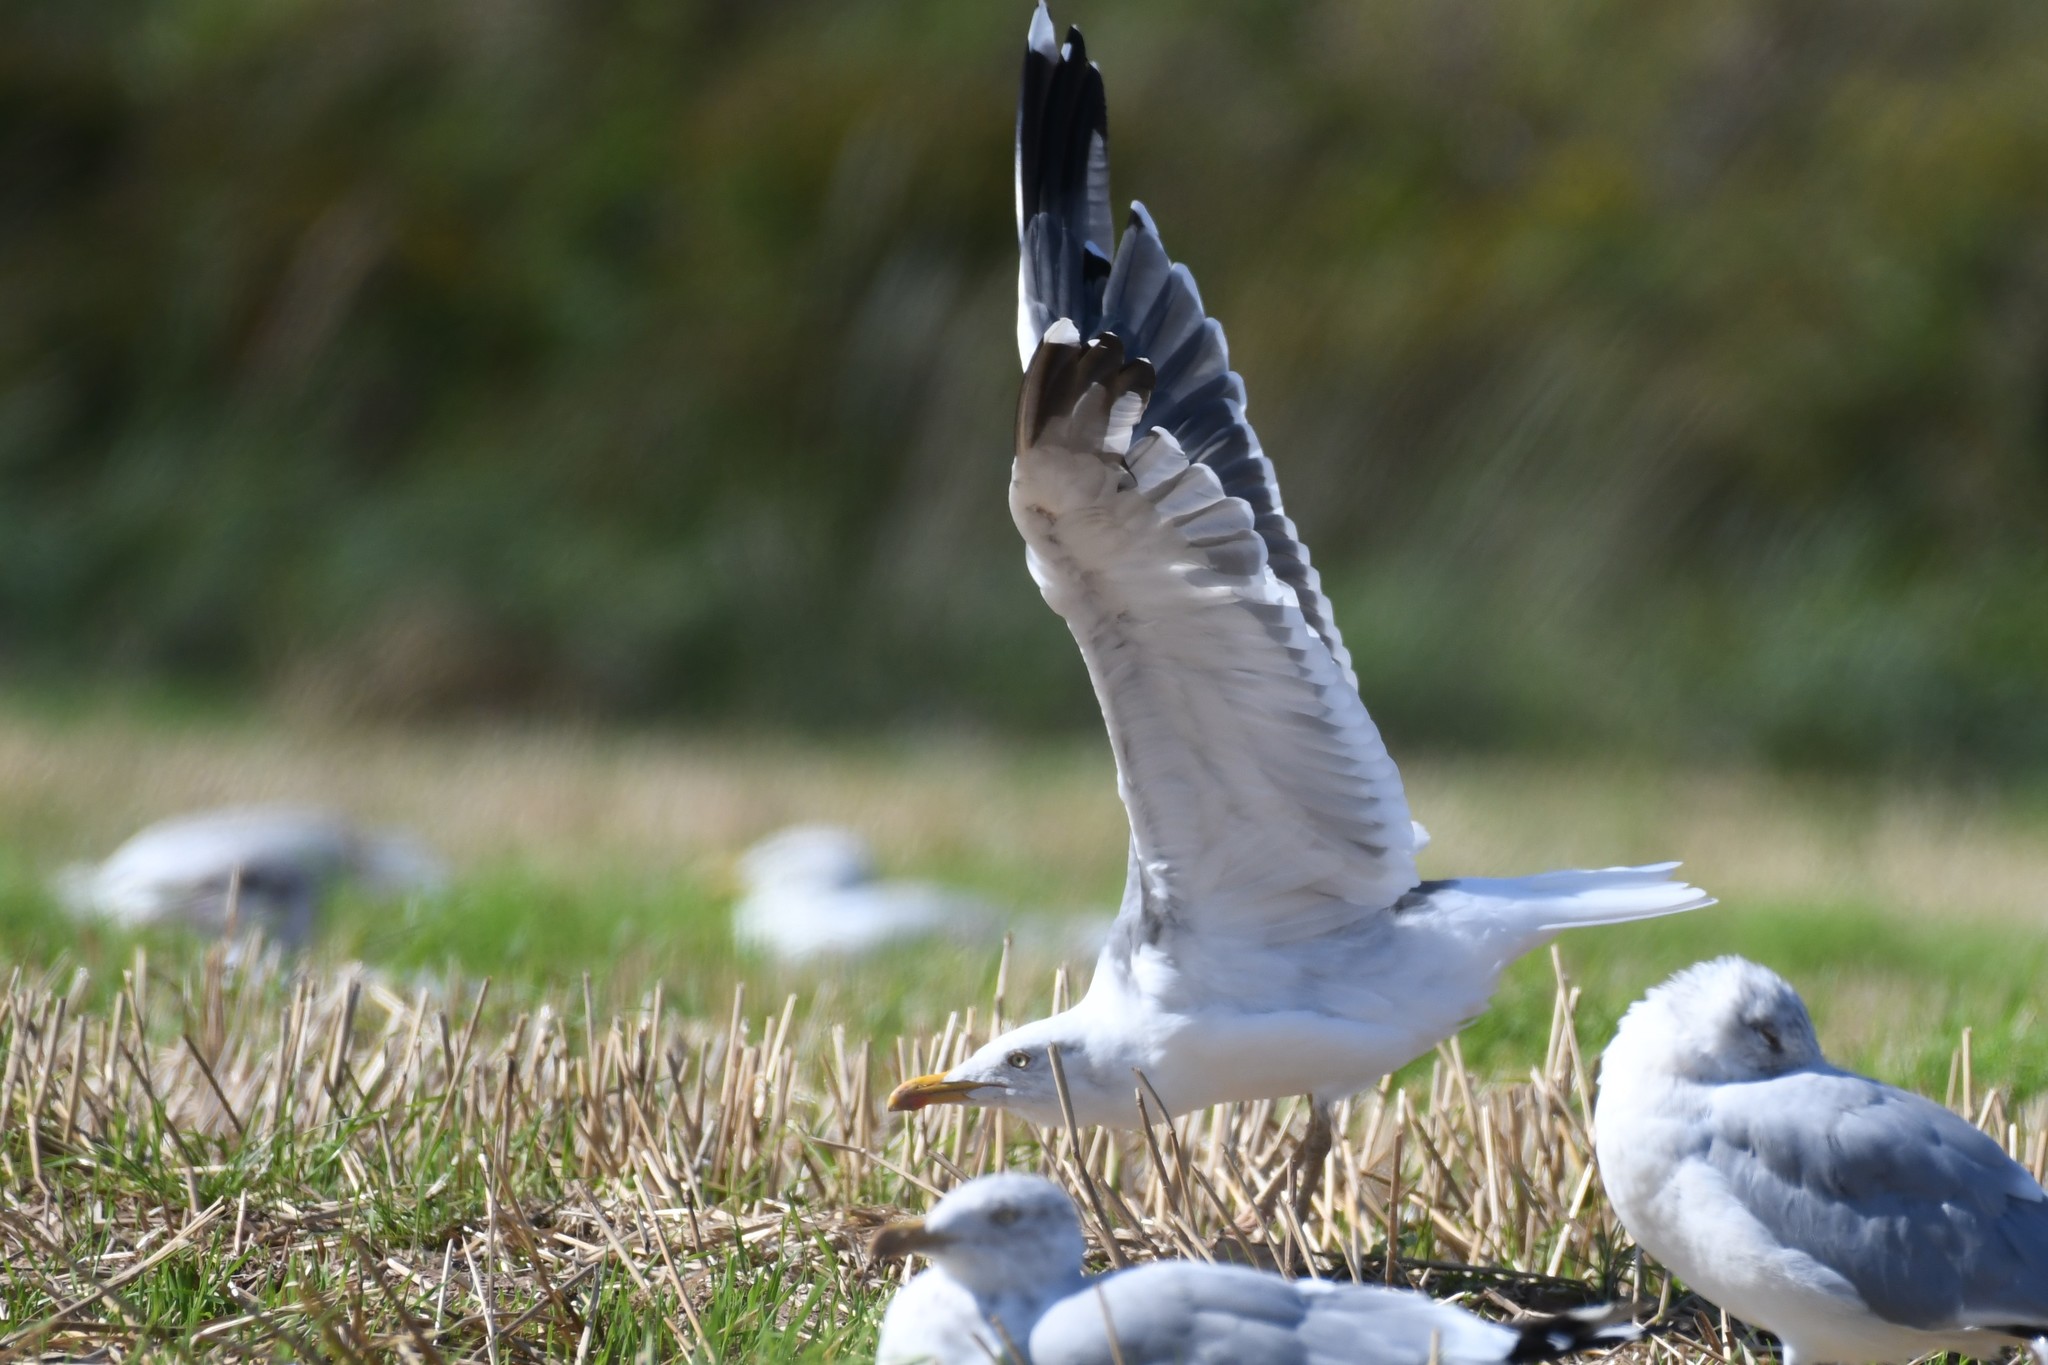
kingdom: Animalia
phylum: Chordata
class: Aves
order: Charadriiformes
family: Laridae
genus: Larus
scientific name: Larus fuscus
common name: Lesser black-backed gull
